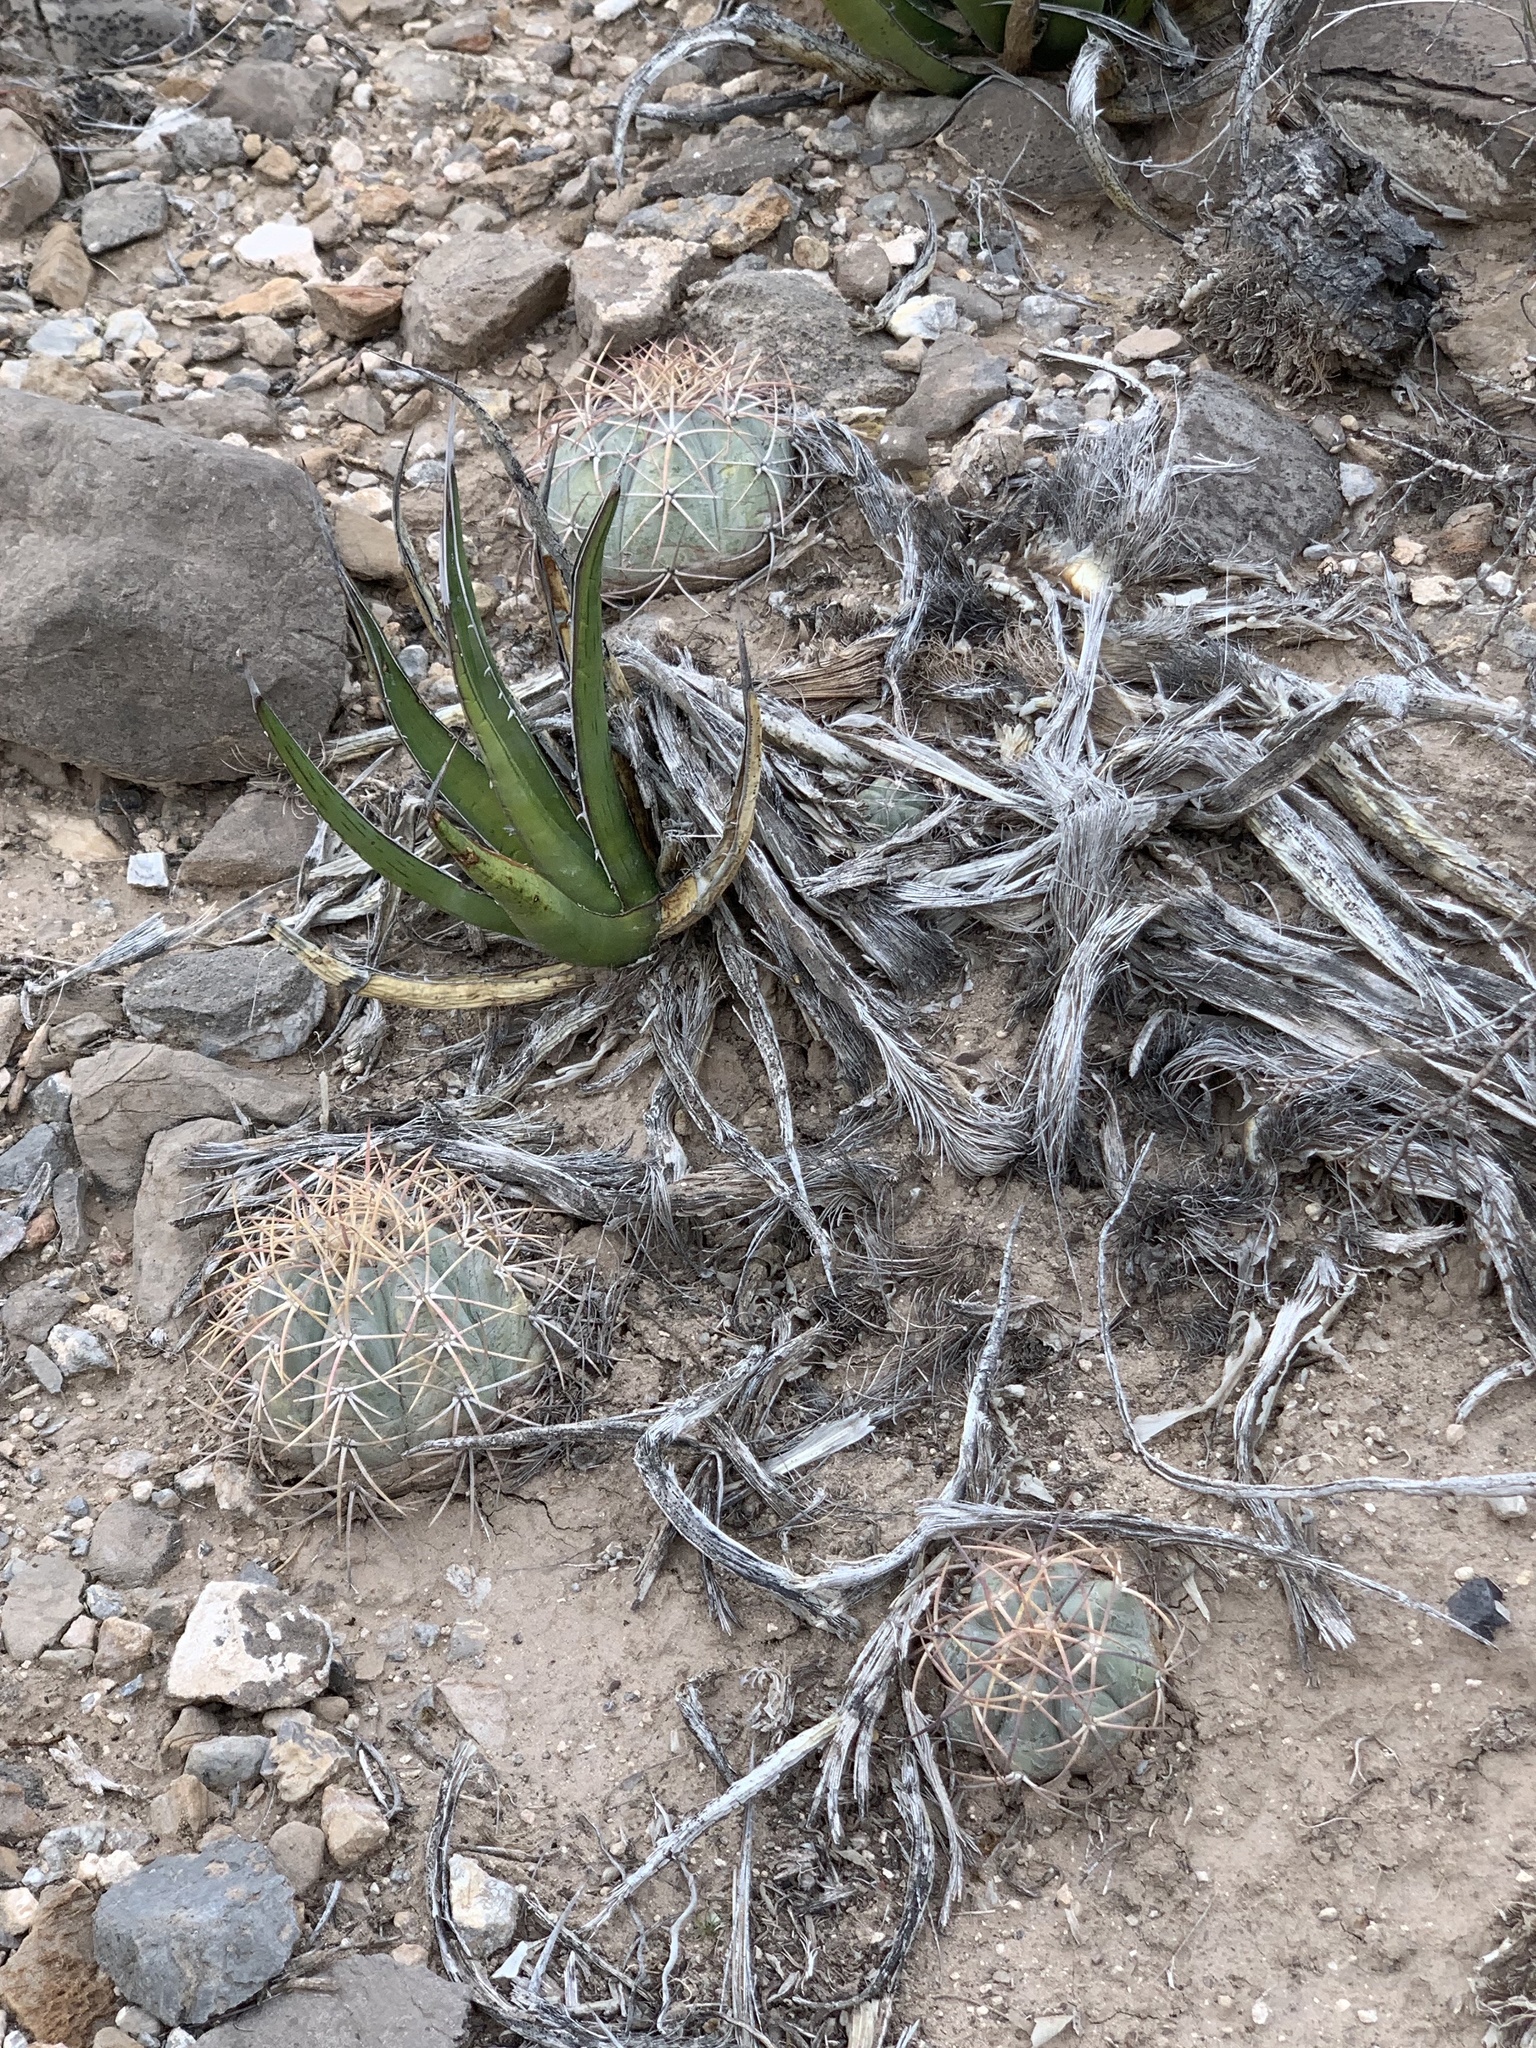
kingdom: Plantae
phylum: Tracheophyta
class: Magnoliopsida
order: Caryophyllales
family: Cactaceae
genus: Echinocactus
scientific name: Echinocactus horizonthalonius
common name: Devilshead
